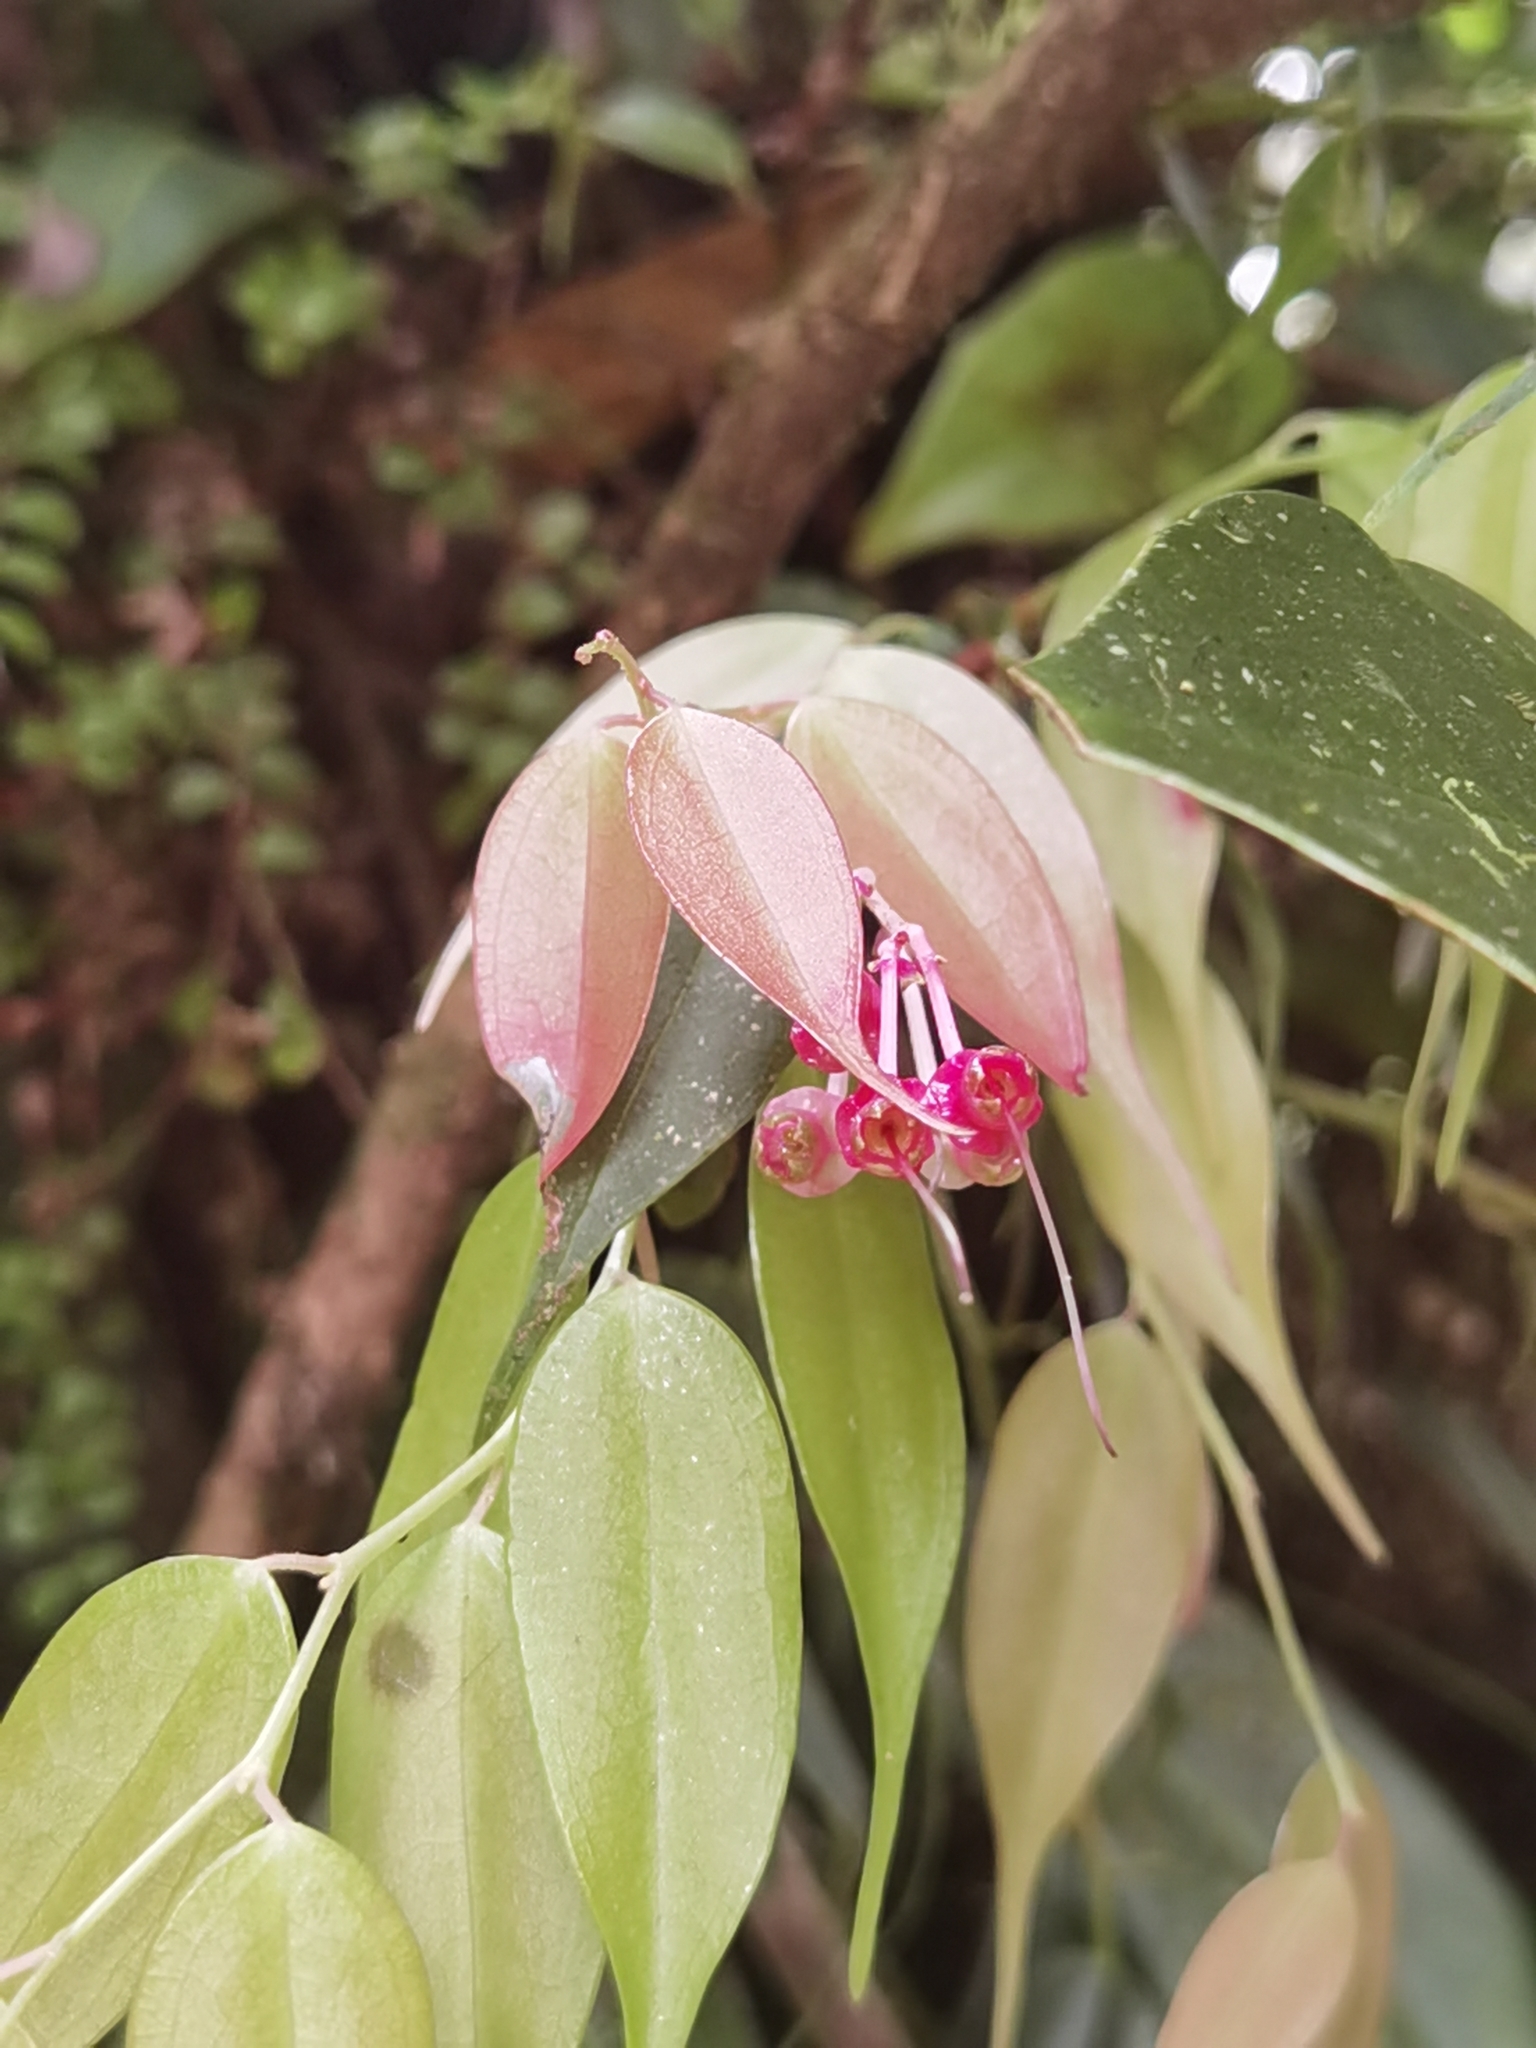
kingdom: Plantae
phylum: Tracheophyta
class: Magnoliopsida
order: Ericales
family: Ericaceae
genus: Cavendishia
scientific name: Cavendishia melastomoides
